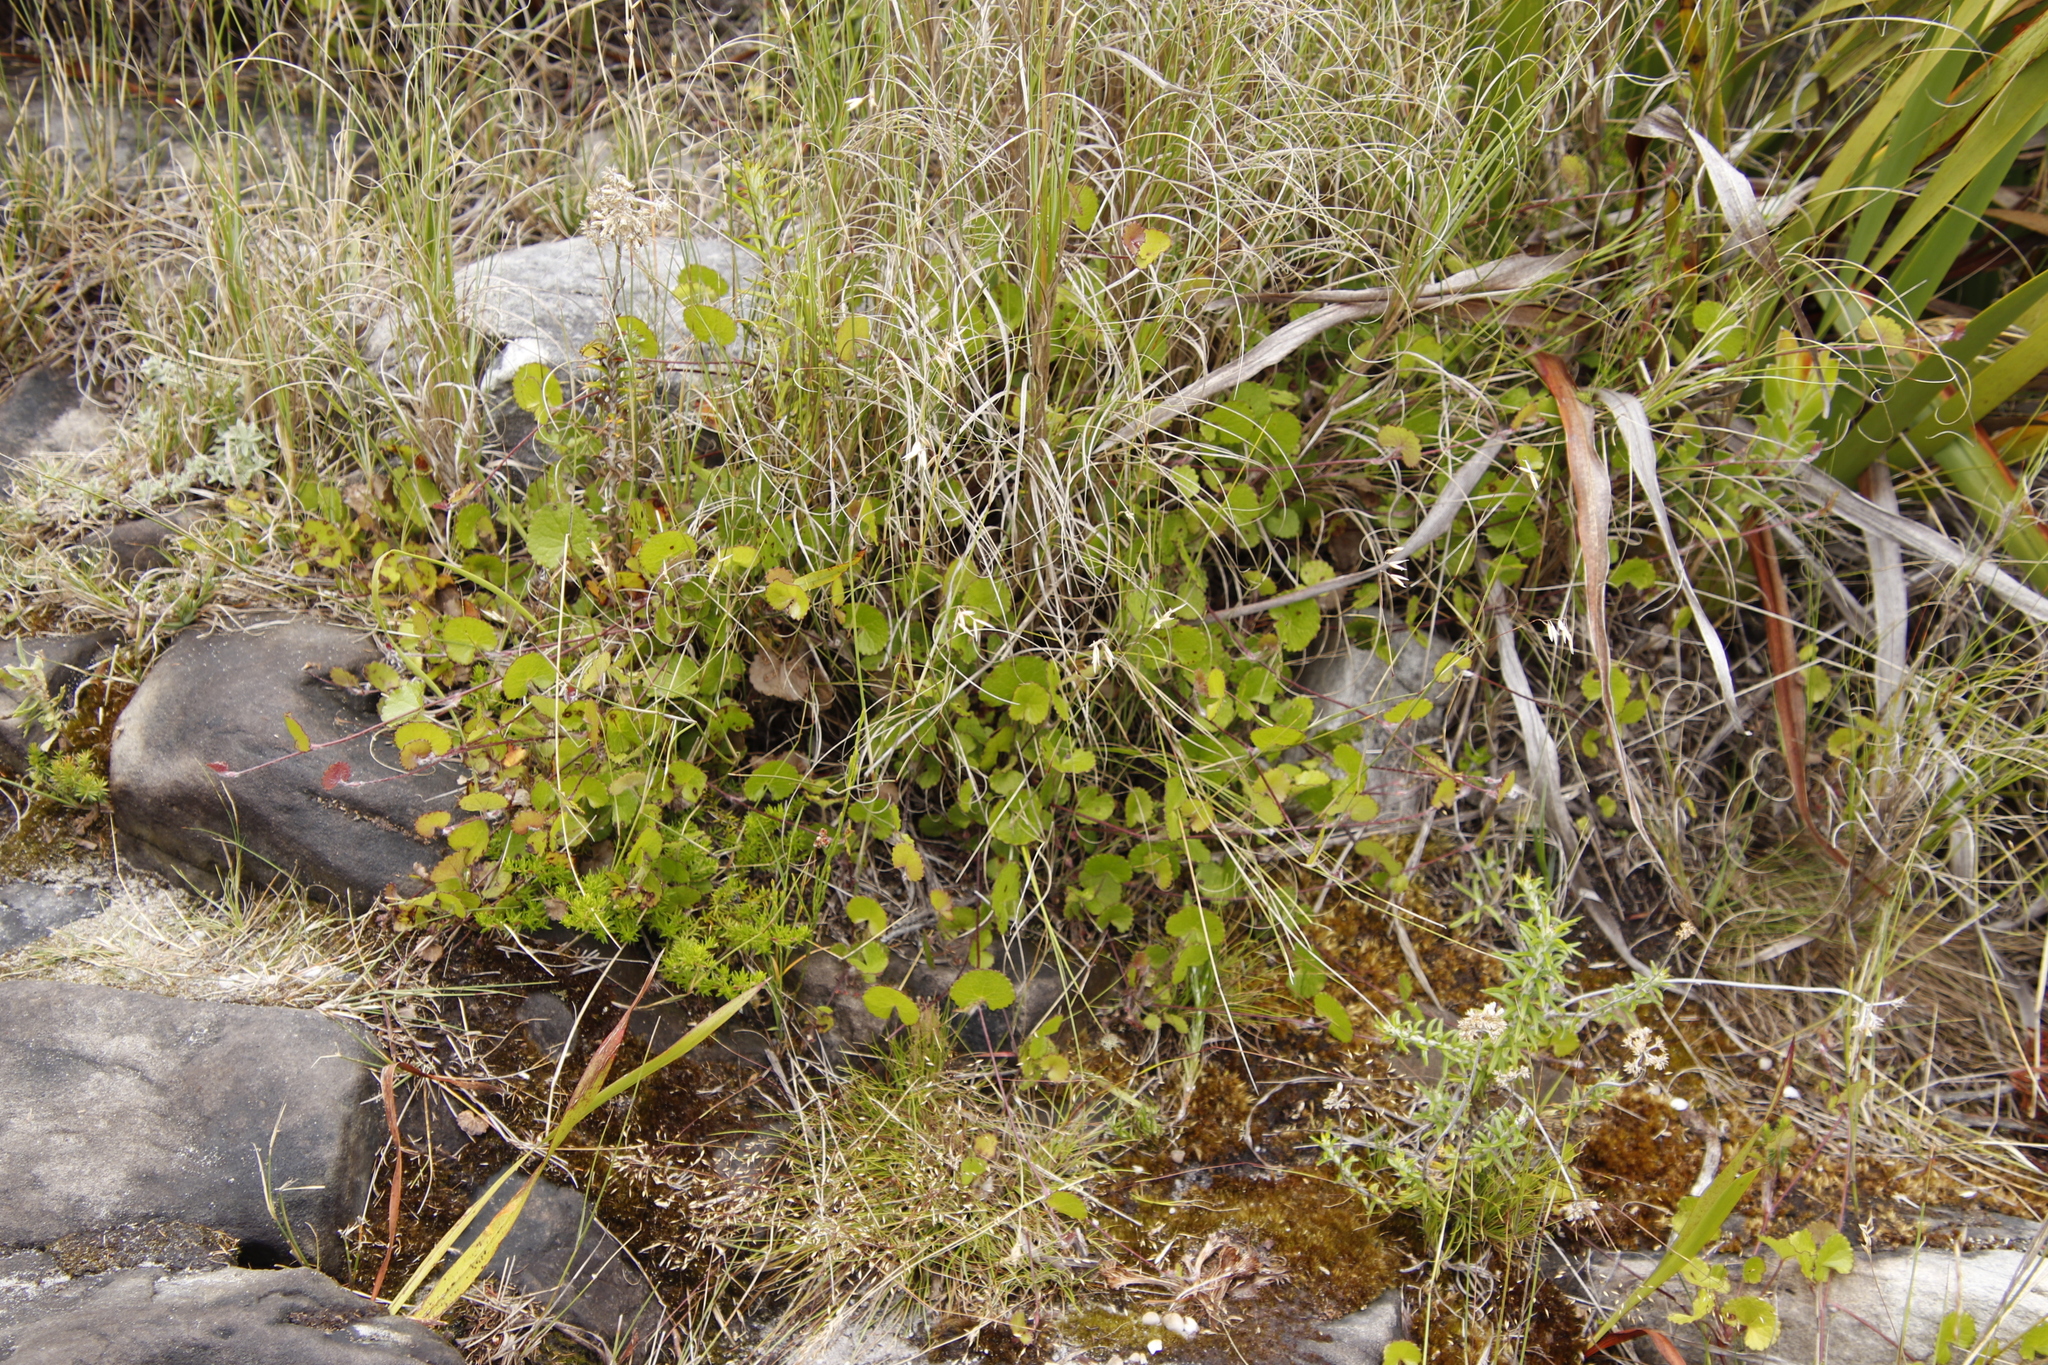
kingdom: Plantae
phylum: Tracheophyta
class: Magnoliopsida
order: Apiales
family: Apiaceae
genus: Centella
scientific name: Centella eriantha
